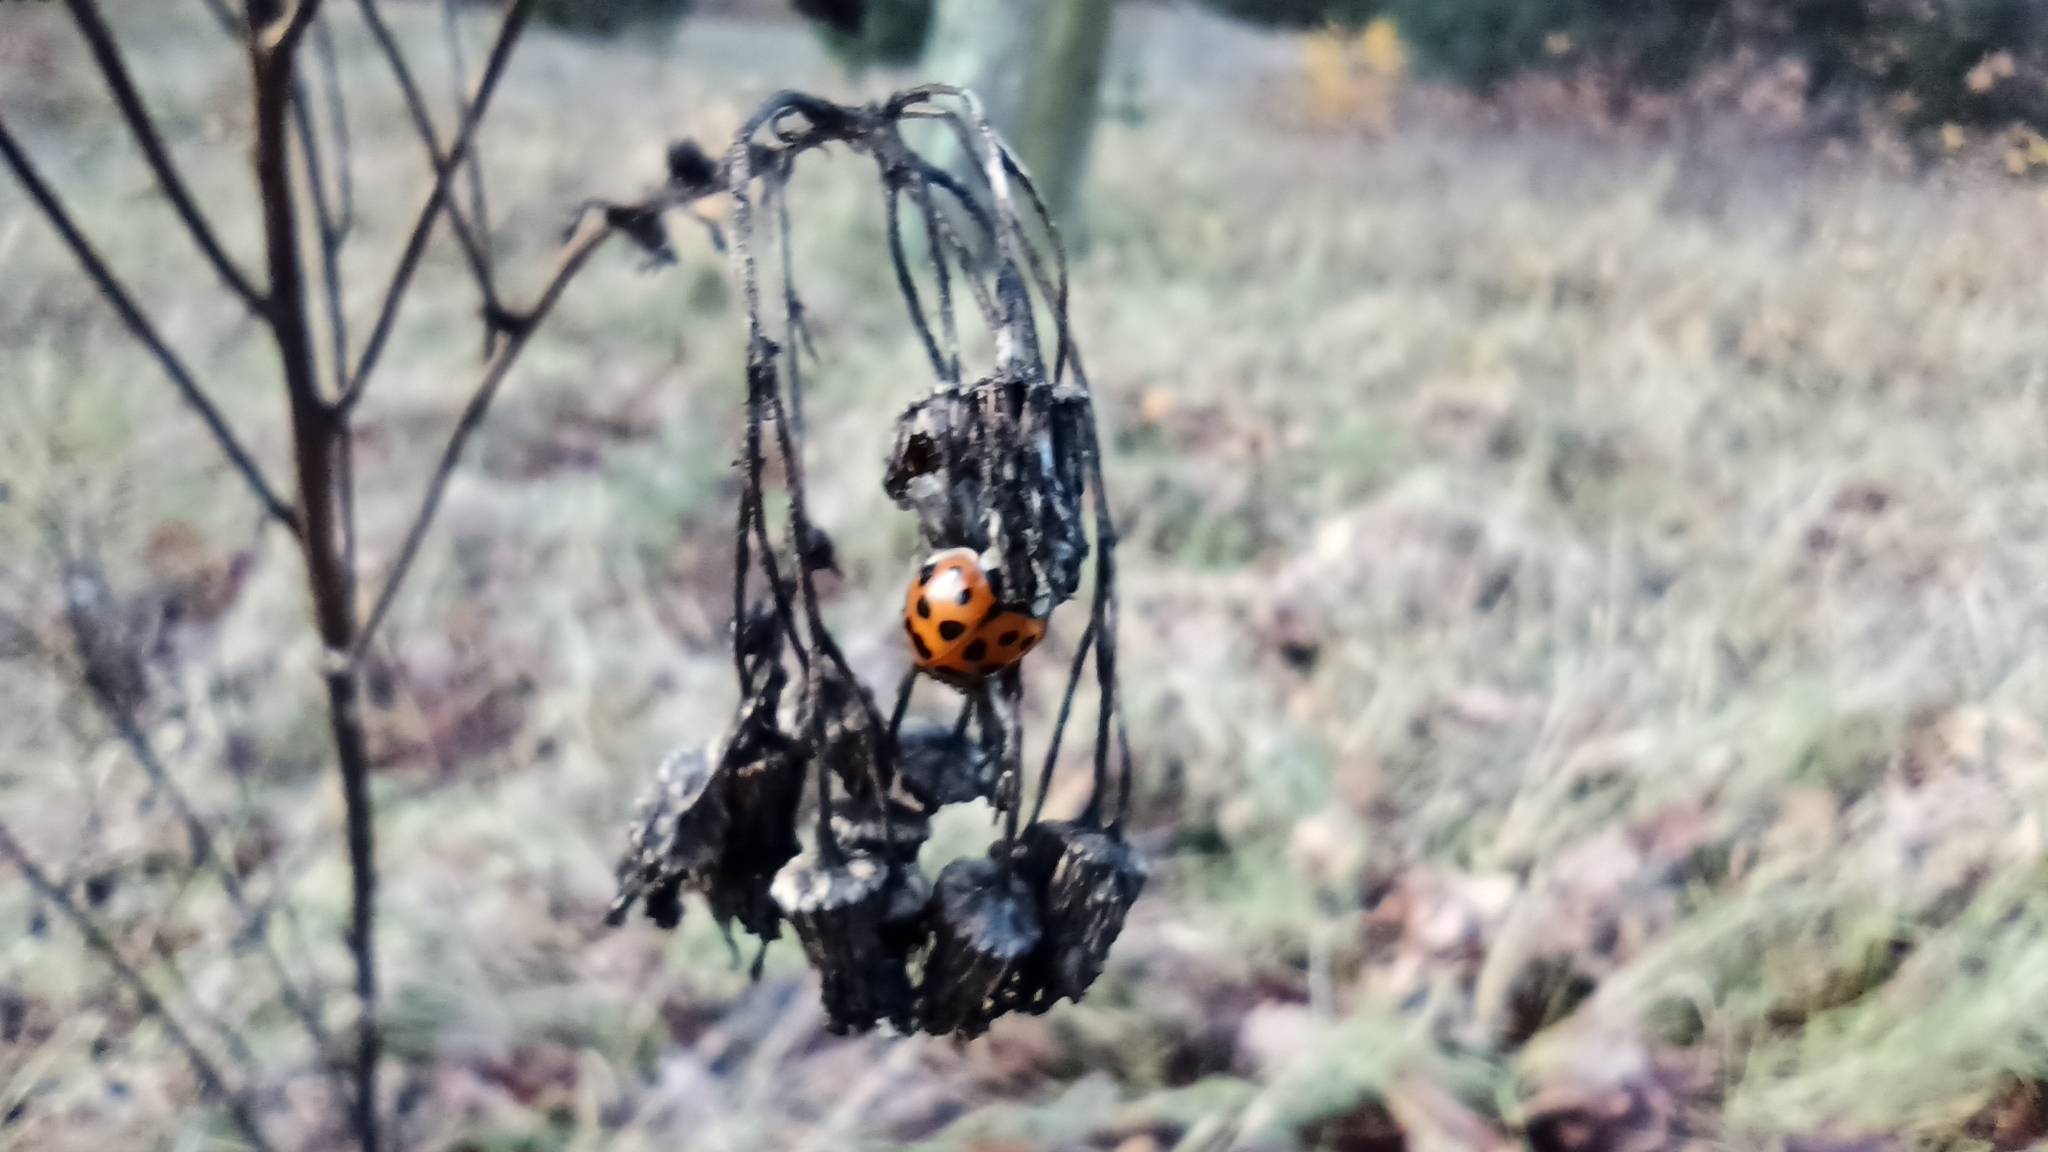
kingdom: Animalia
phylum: Arthropoda
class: Insecta
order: Coleoptera
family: Coccinellidae
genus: Harmonia
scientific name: Harmonia axyridis
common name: Harlequin ladybird
